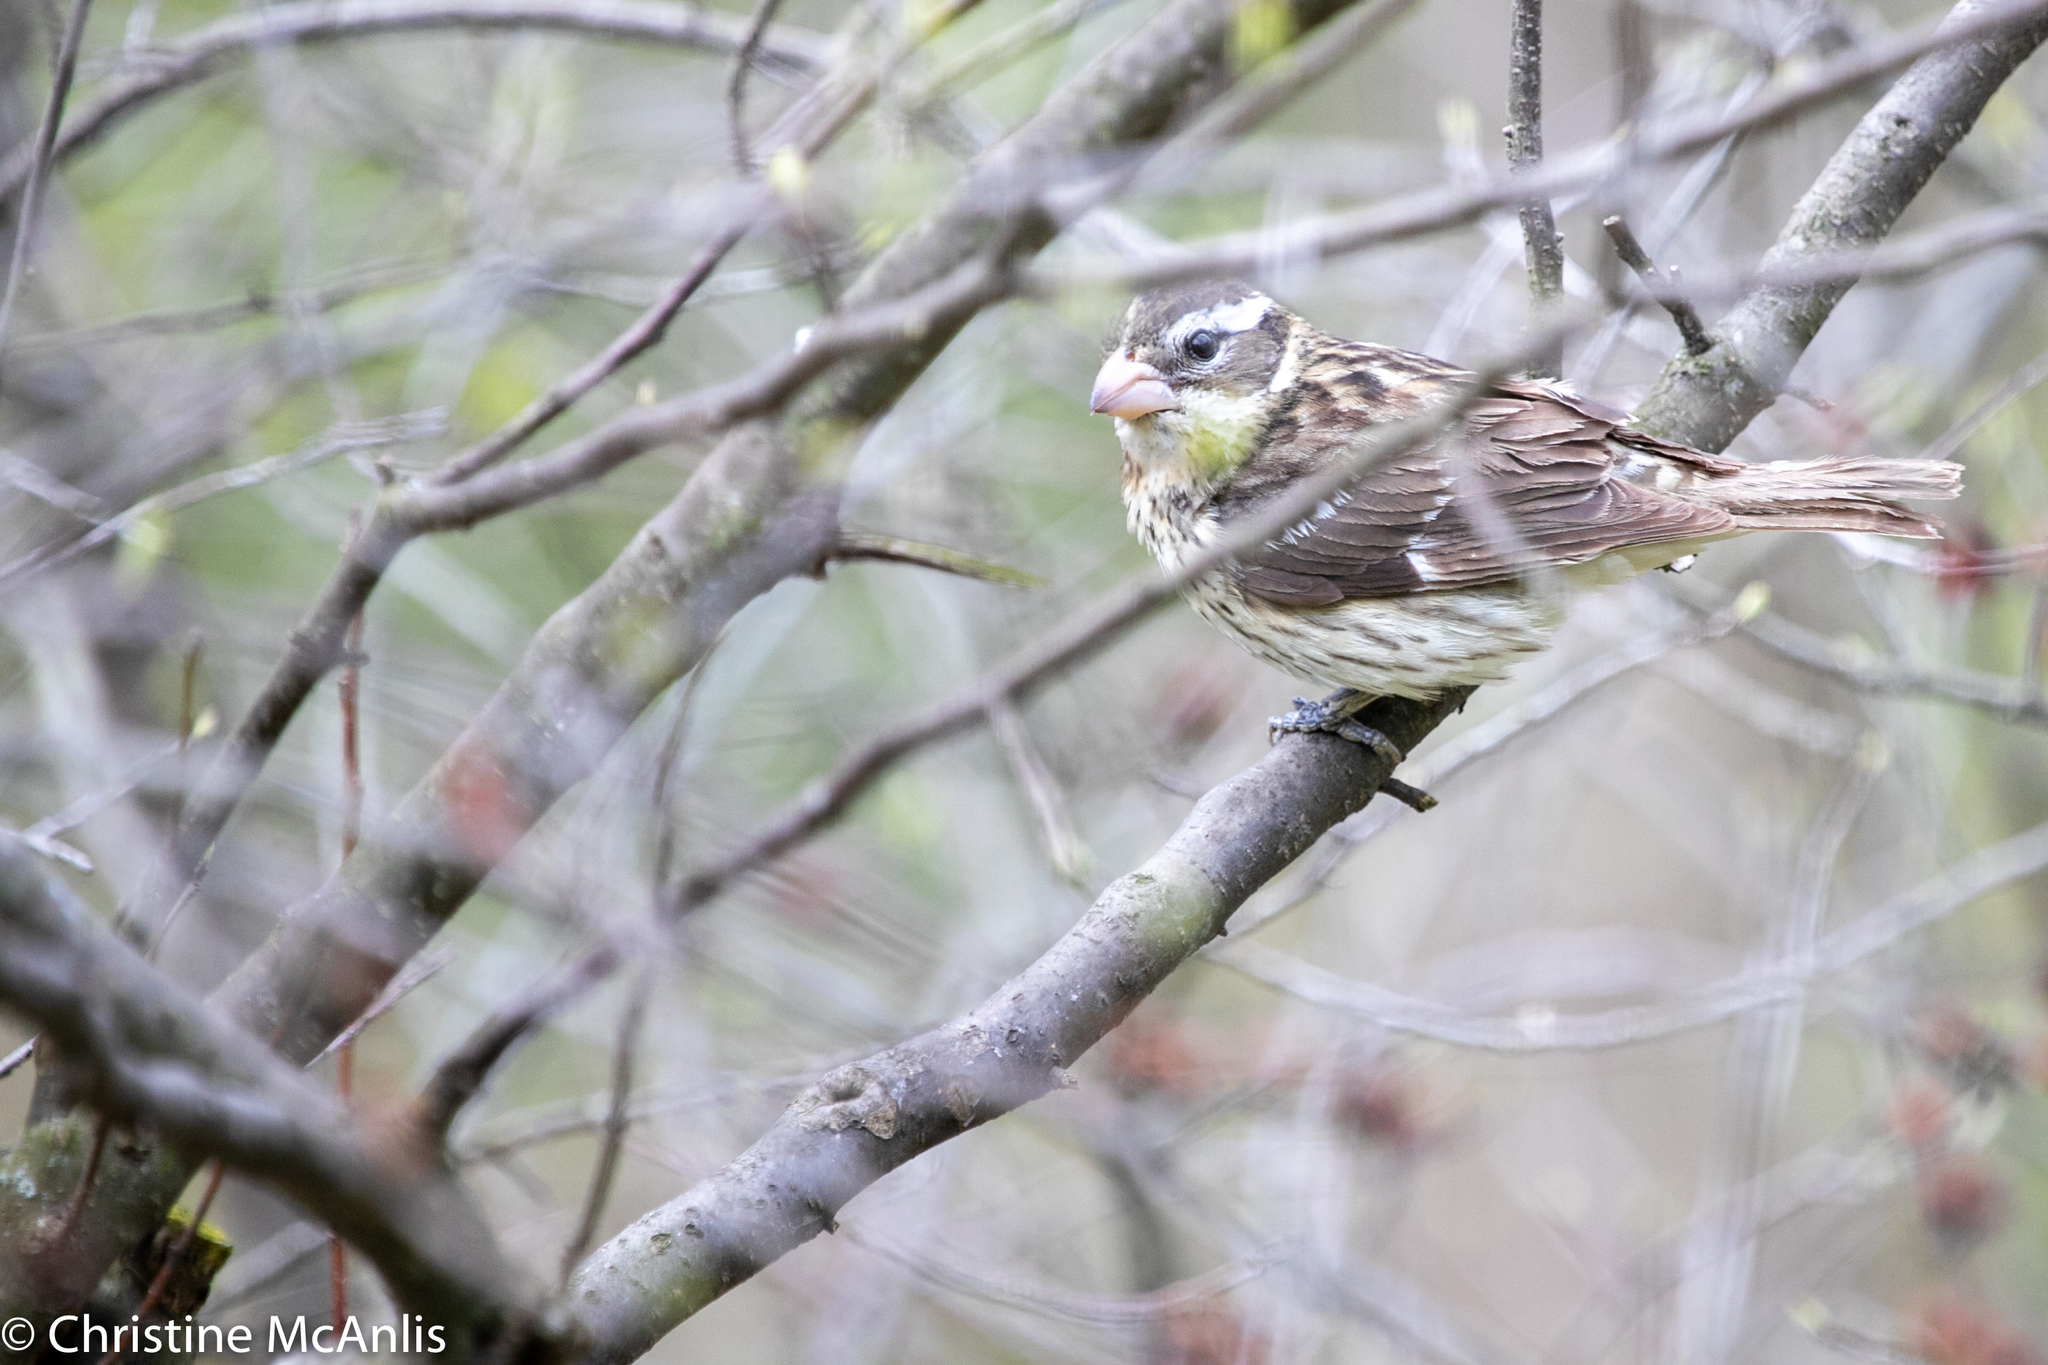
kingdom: Animalia
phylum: Chordata
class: Aves
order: Passeriformes
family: Cardinalidae
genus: Pheucticus
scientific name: Pheucticus ludovicianus
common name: Rose-breasted grosbeak
